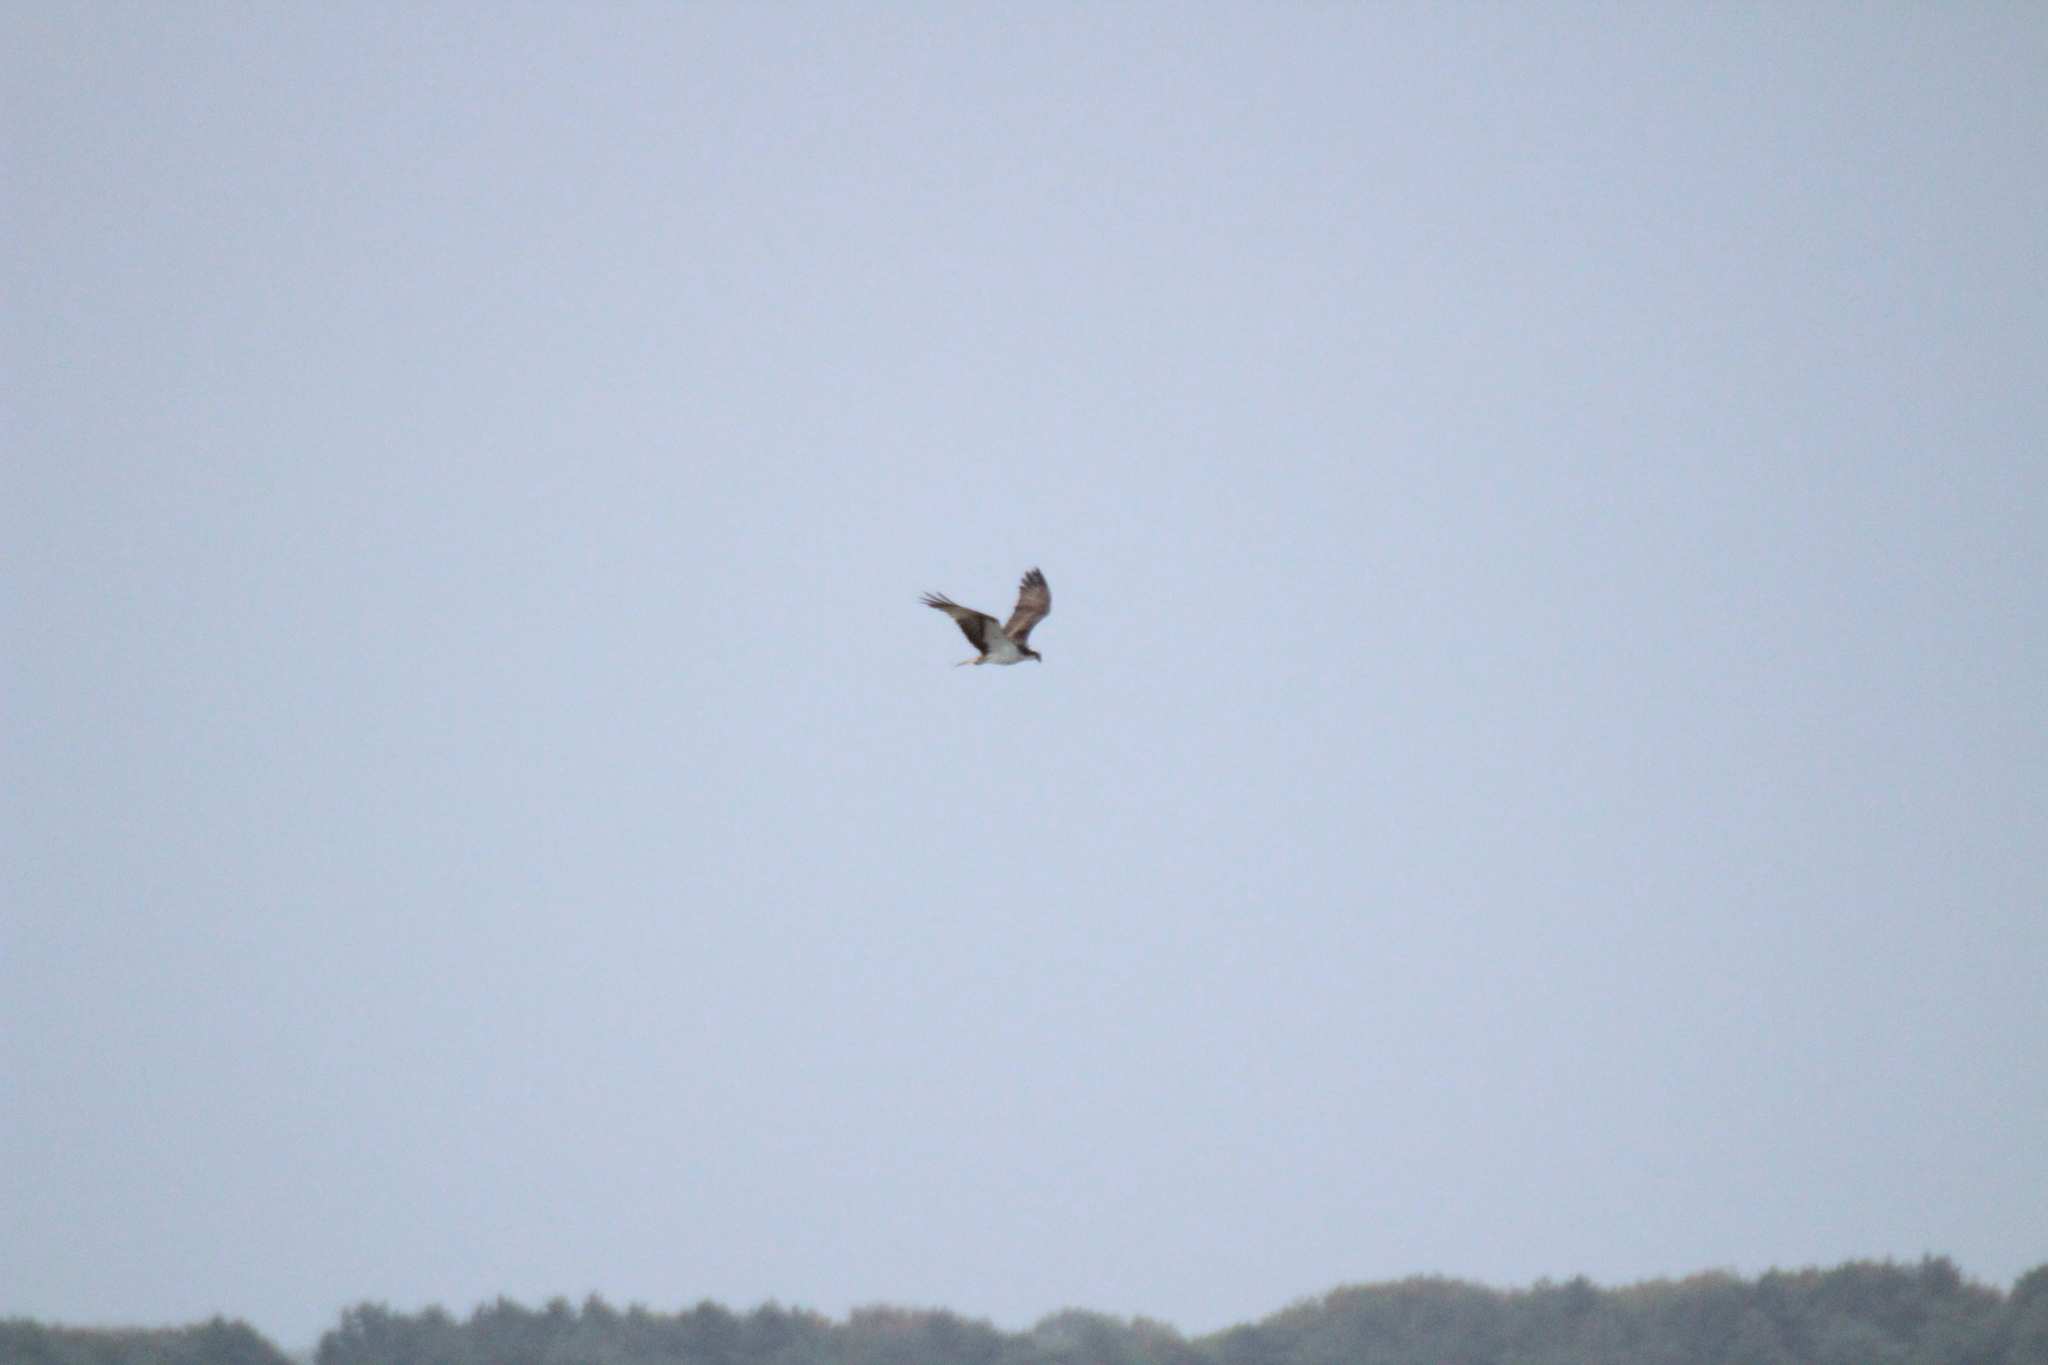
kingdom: Animalia
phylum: Chordata
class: Aves
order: Accipitriformes
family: Pandionidae
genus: Pandion
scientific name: Pandion haliaetus
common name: Osprey
